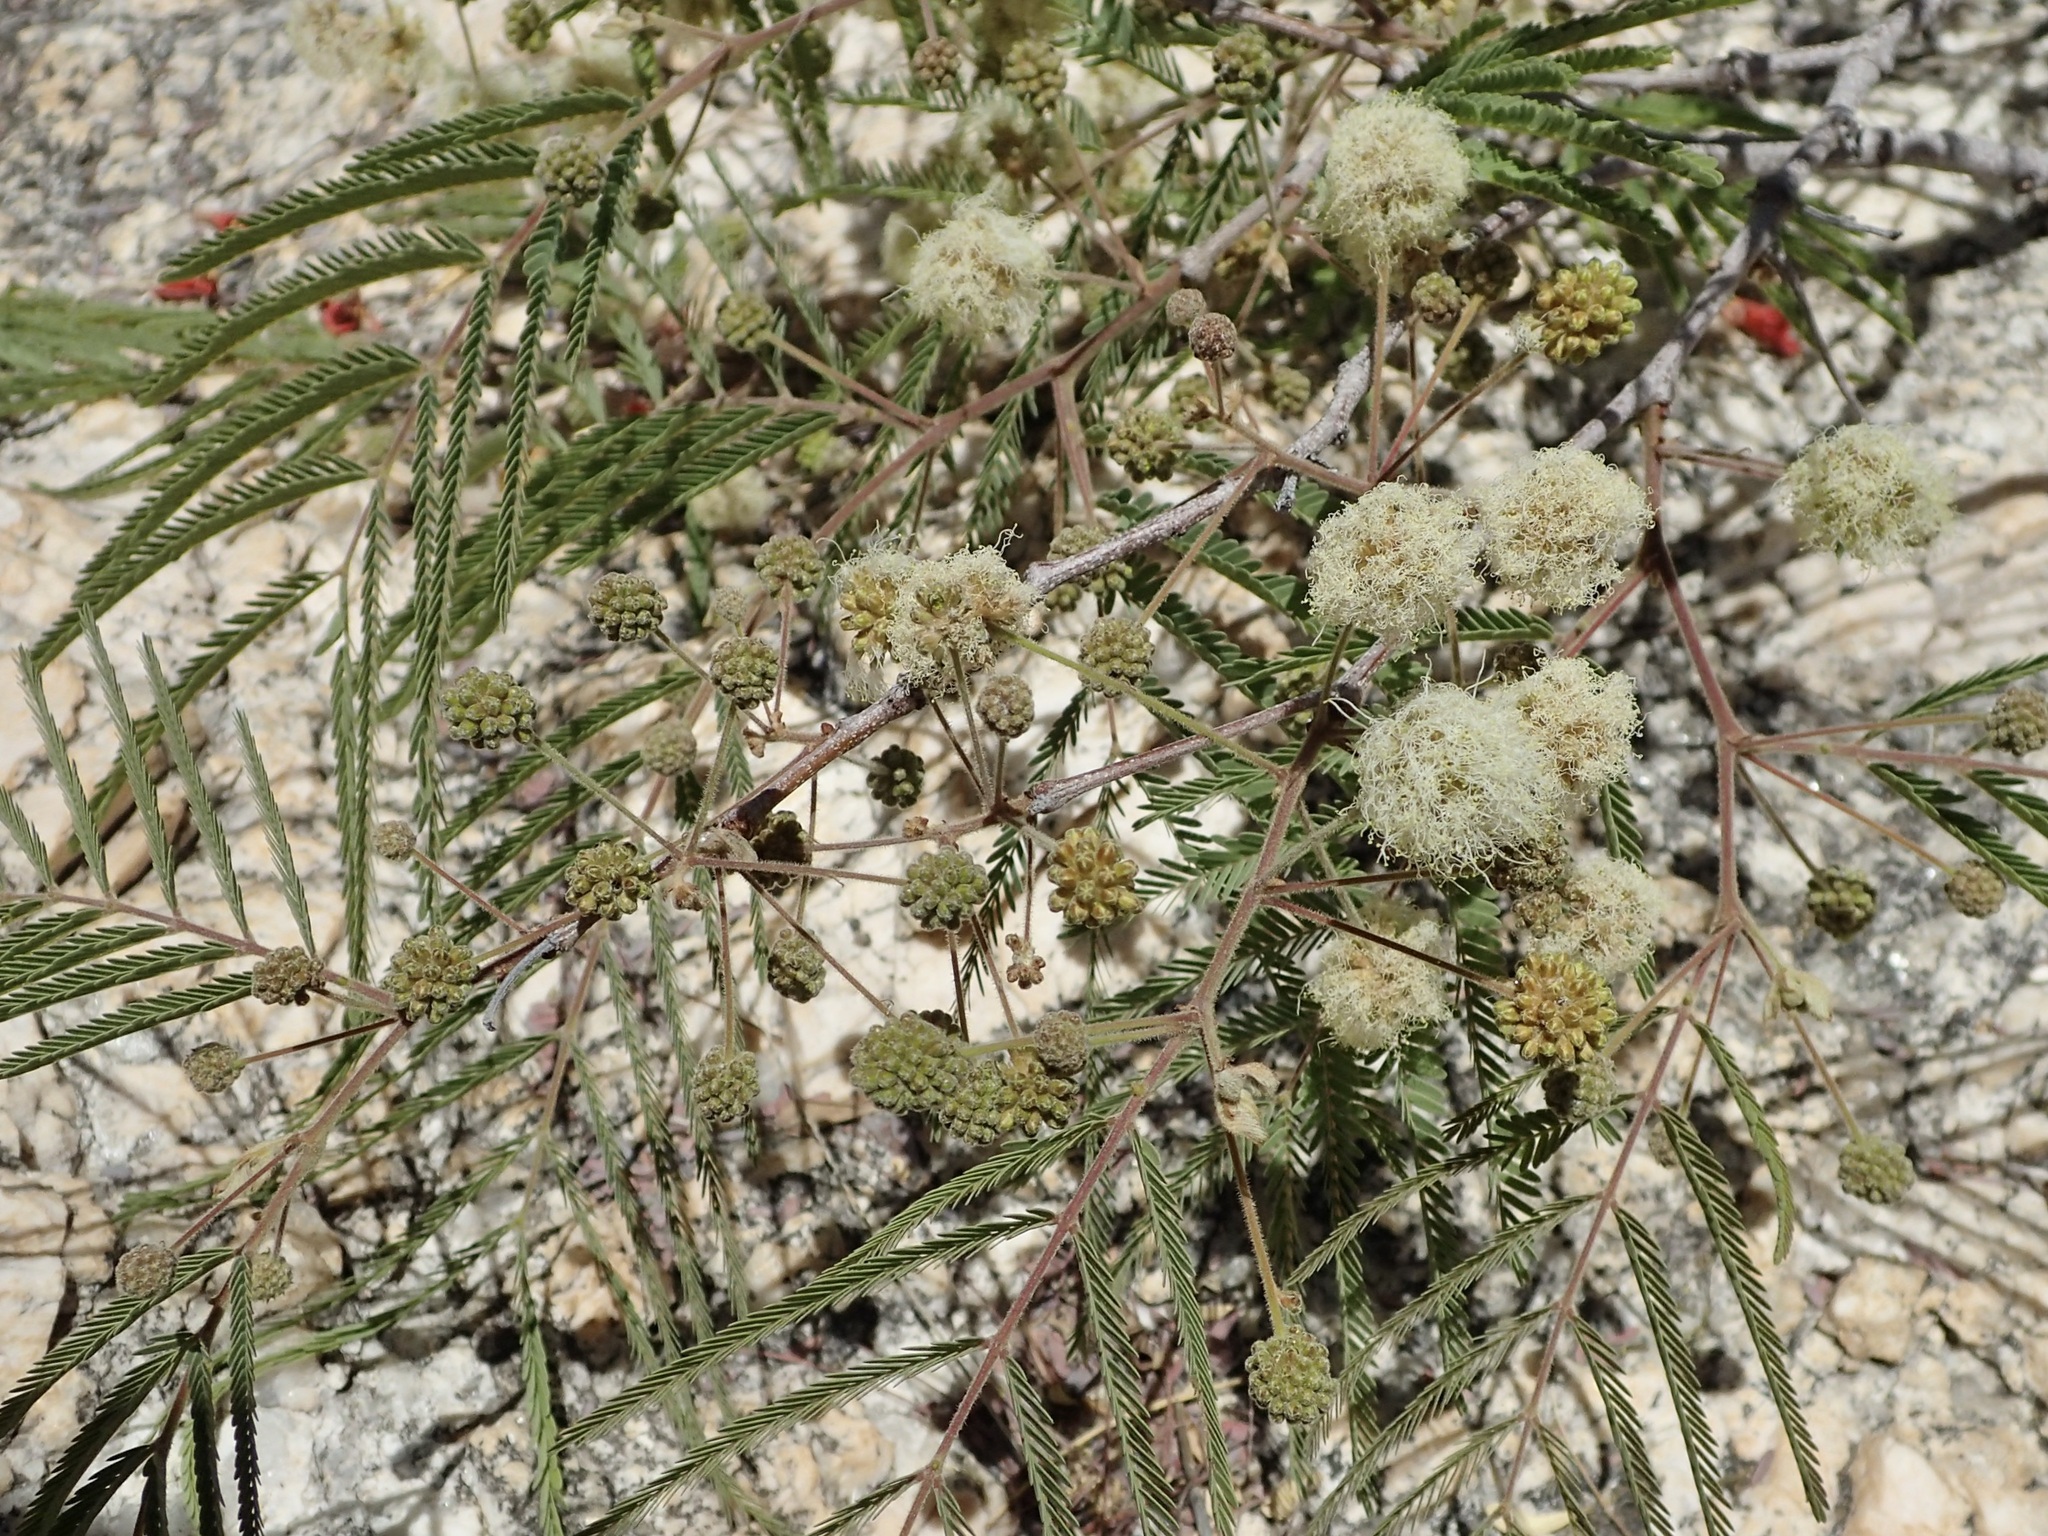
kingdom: Plantae
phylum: Tracheophyta
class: Magnoliopsida
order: Fabales
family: Fabaceae
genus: Lysiloma
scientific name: Lysiloma watsonii
